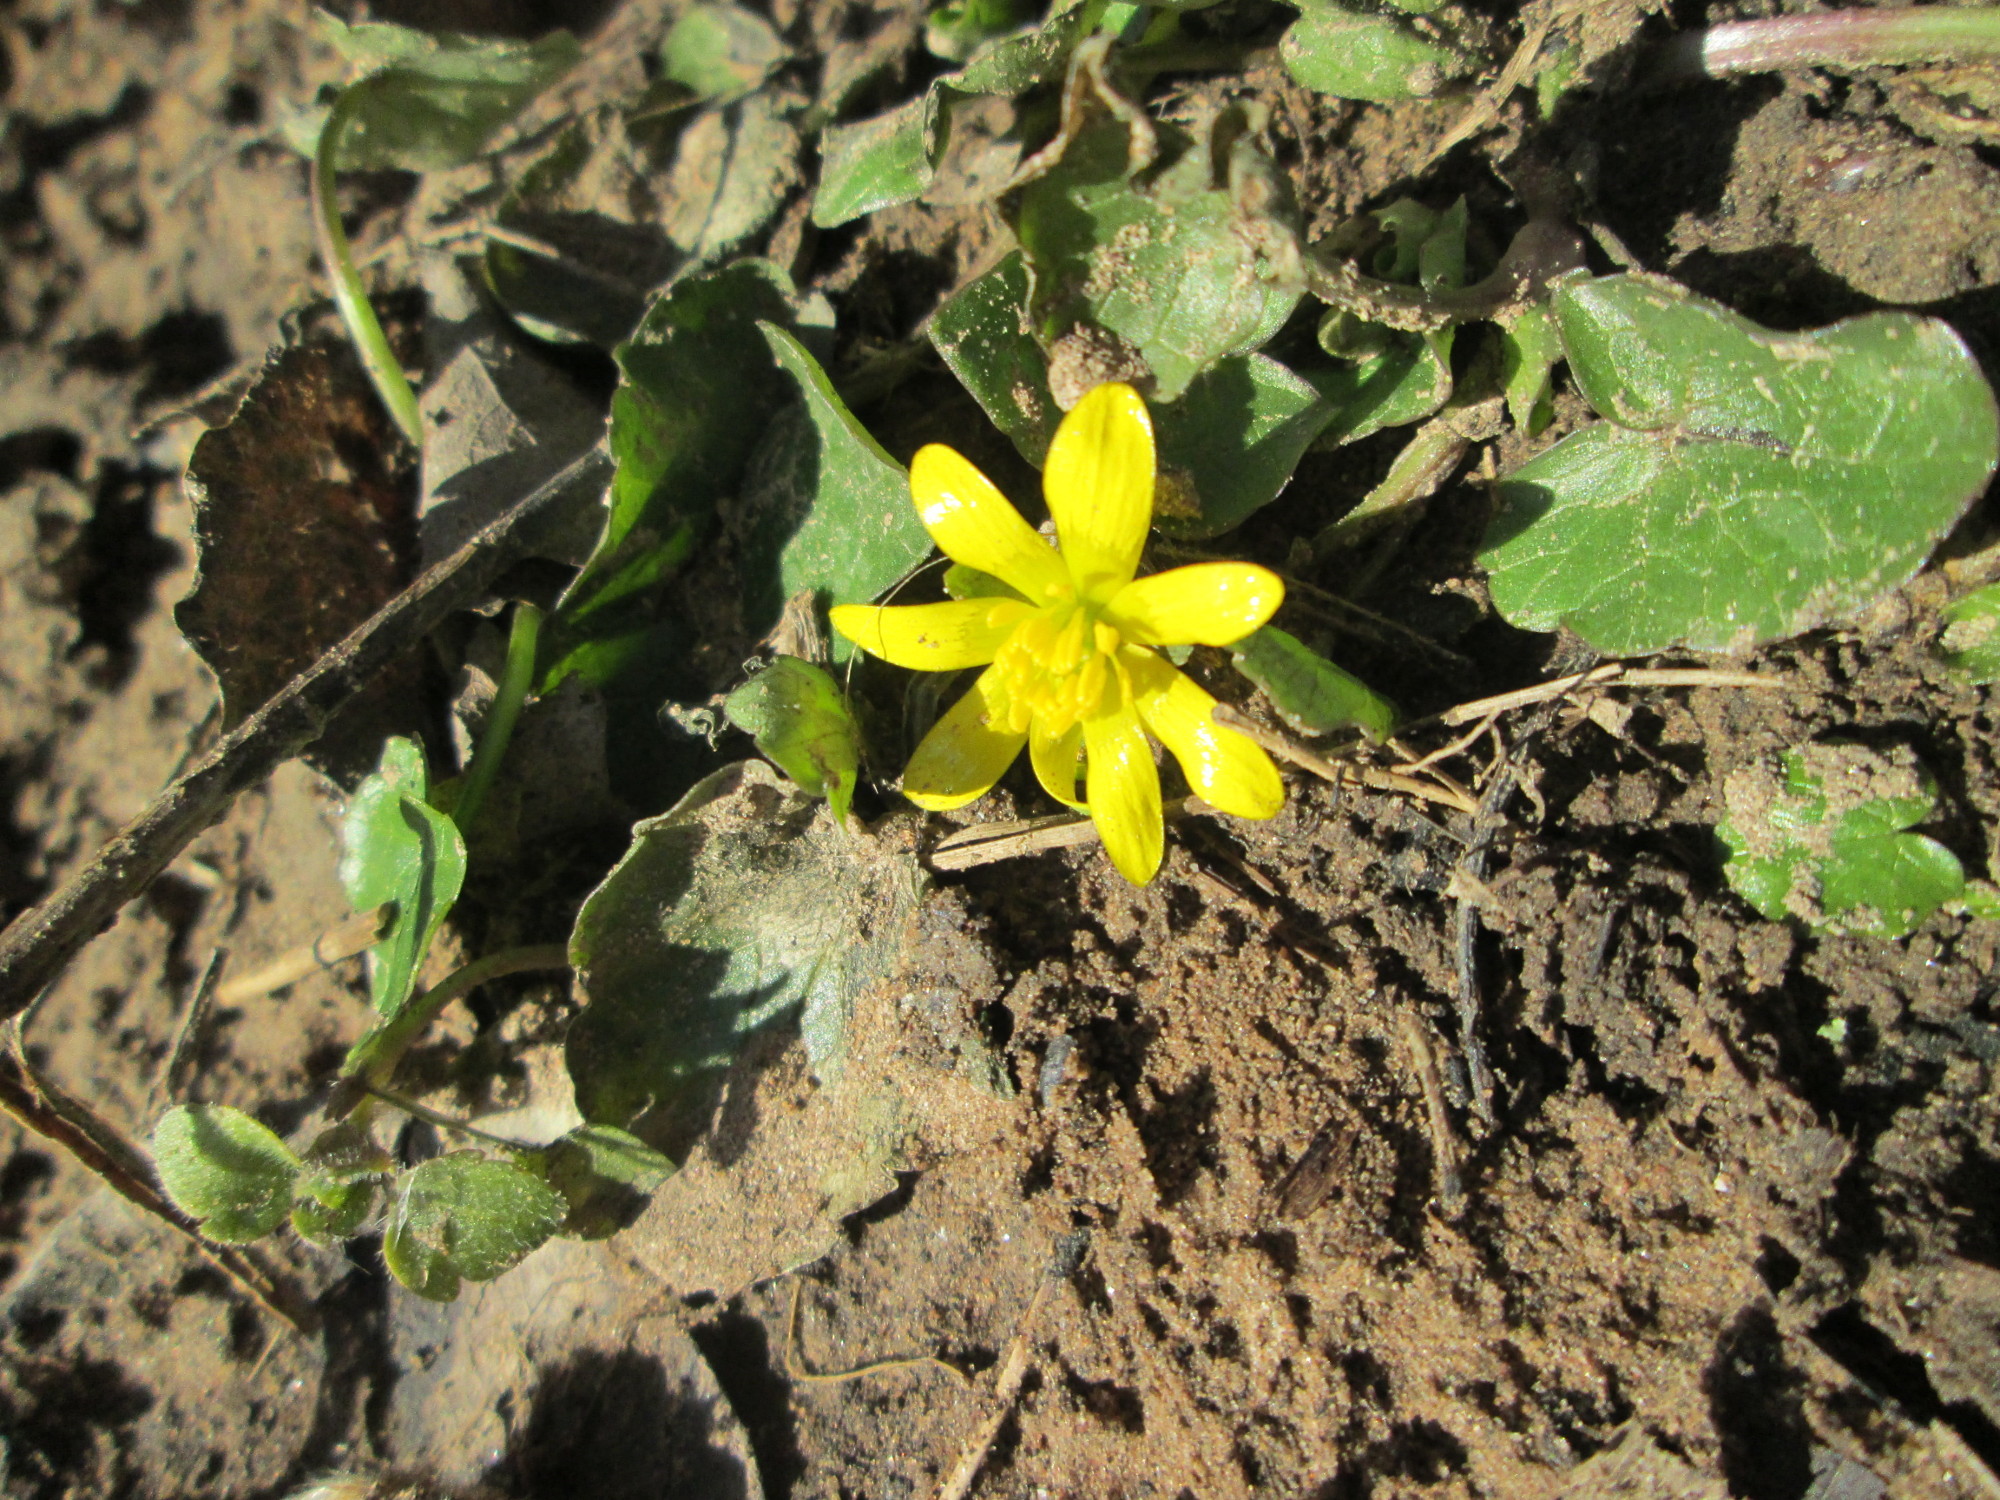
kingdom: Plantae
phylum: Tracheophyta
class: Magnoliopsida
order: Ranunculales
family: Ranunculaceae
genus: Ficaria
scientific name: Ficaria verna
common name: Lesser celandine
